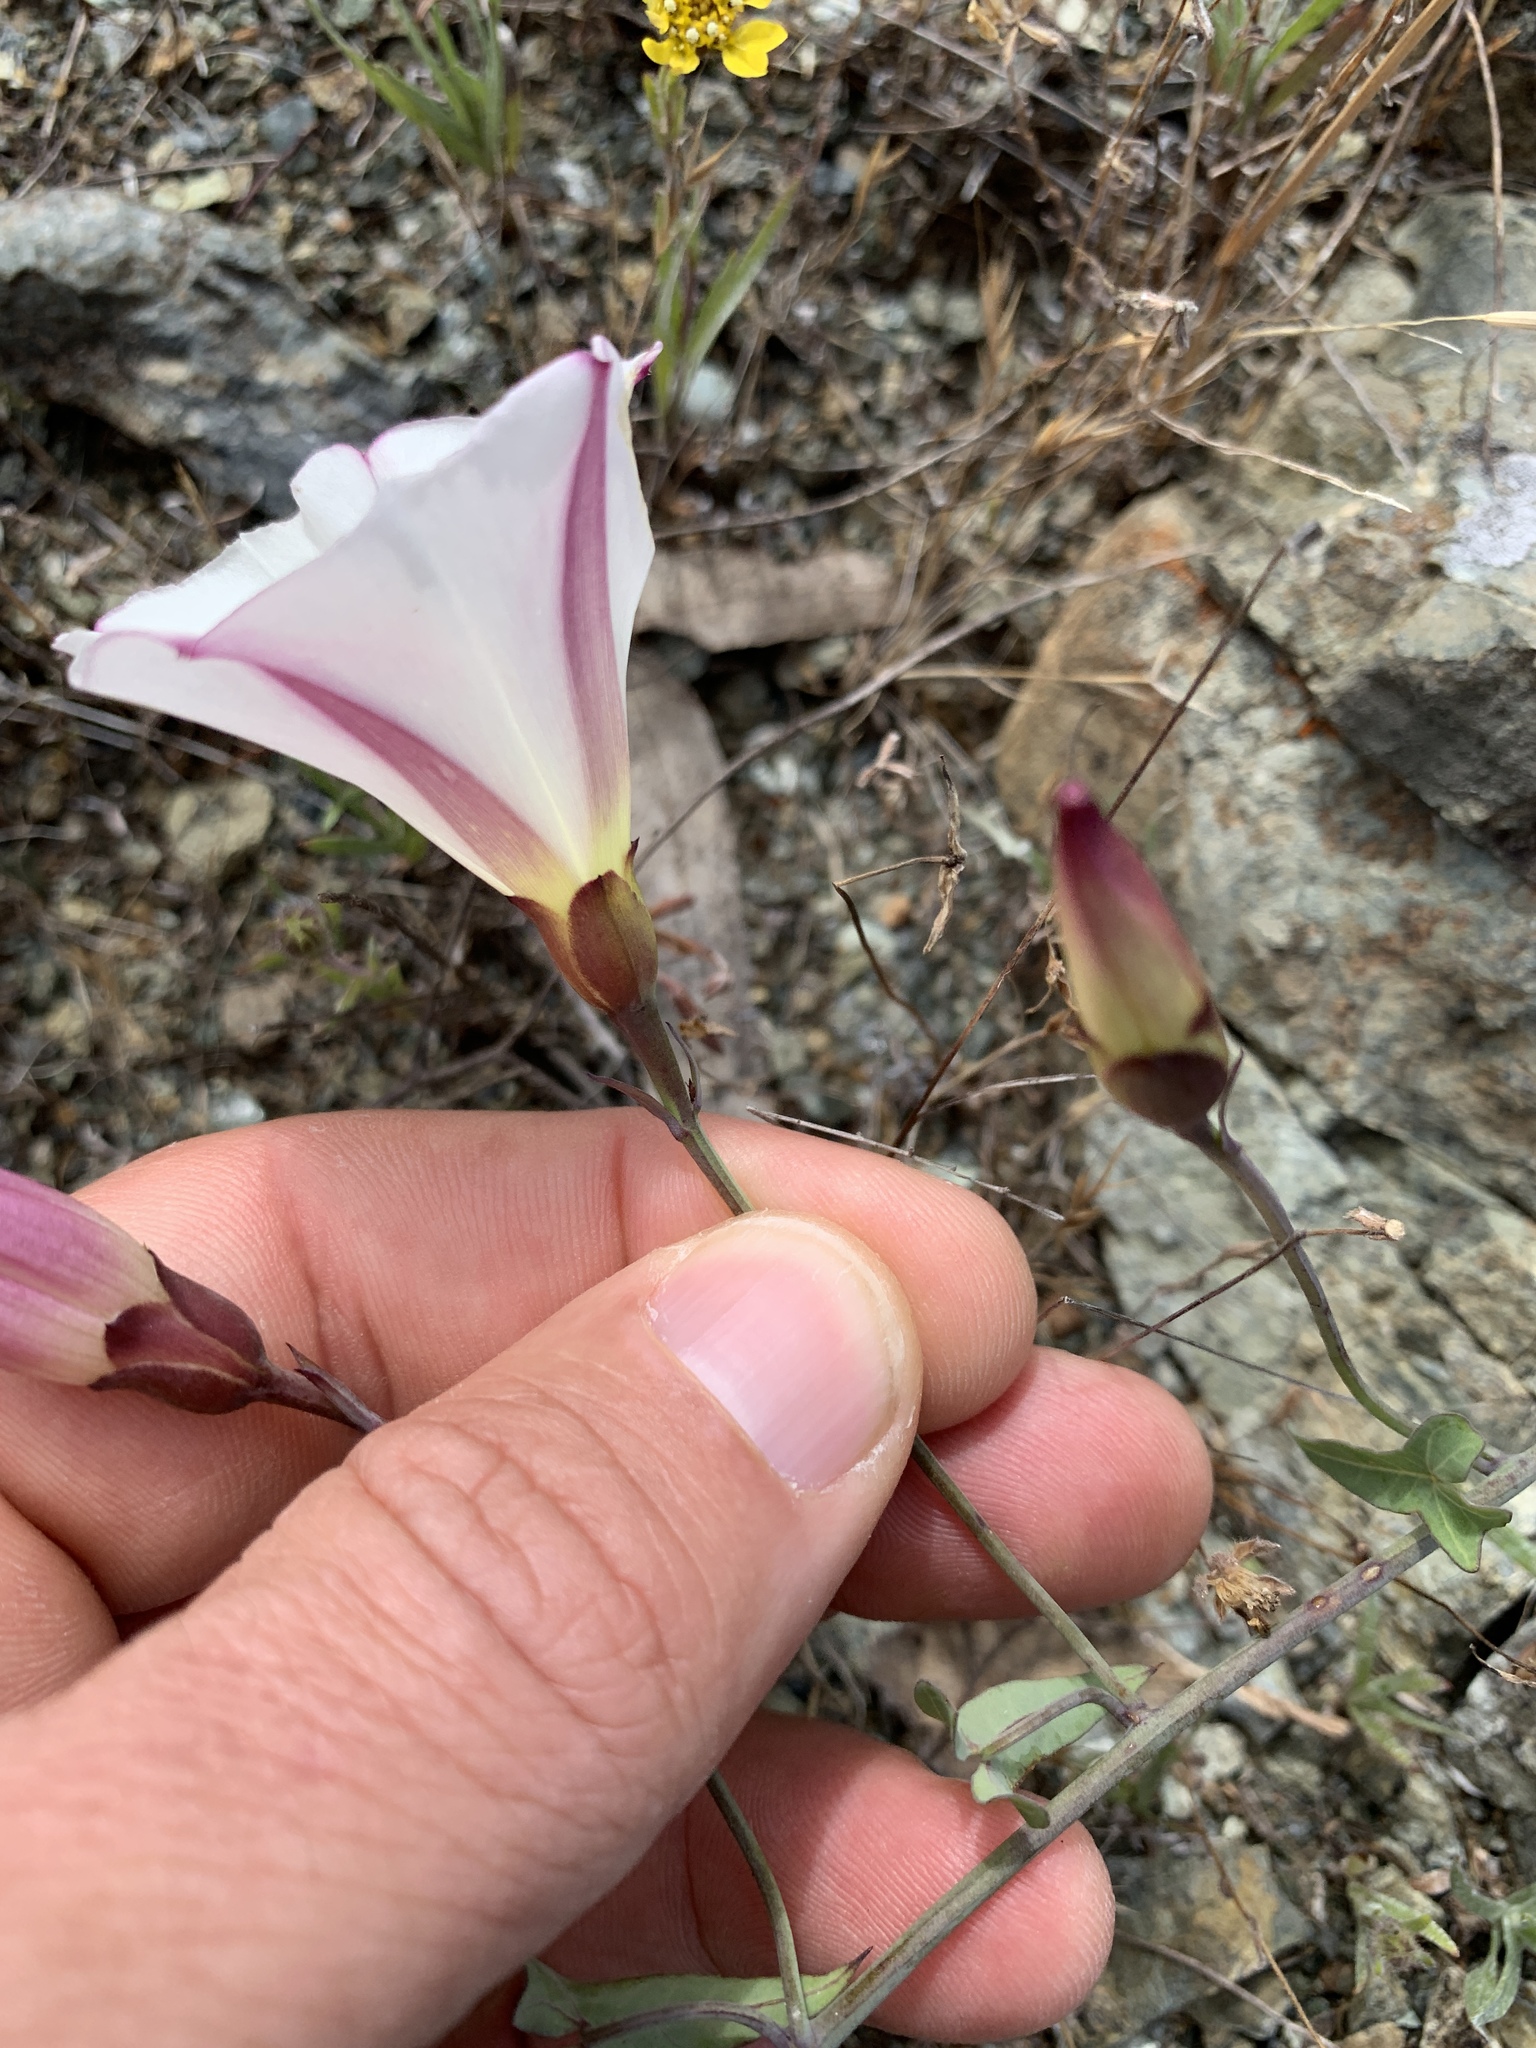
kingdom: Plantae
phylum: Tracheophyta
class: Magnoliopsida
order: Solanales
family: Convolvulaceae
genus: Calystegia
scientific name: Calystegia purpurata
